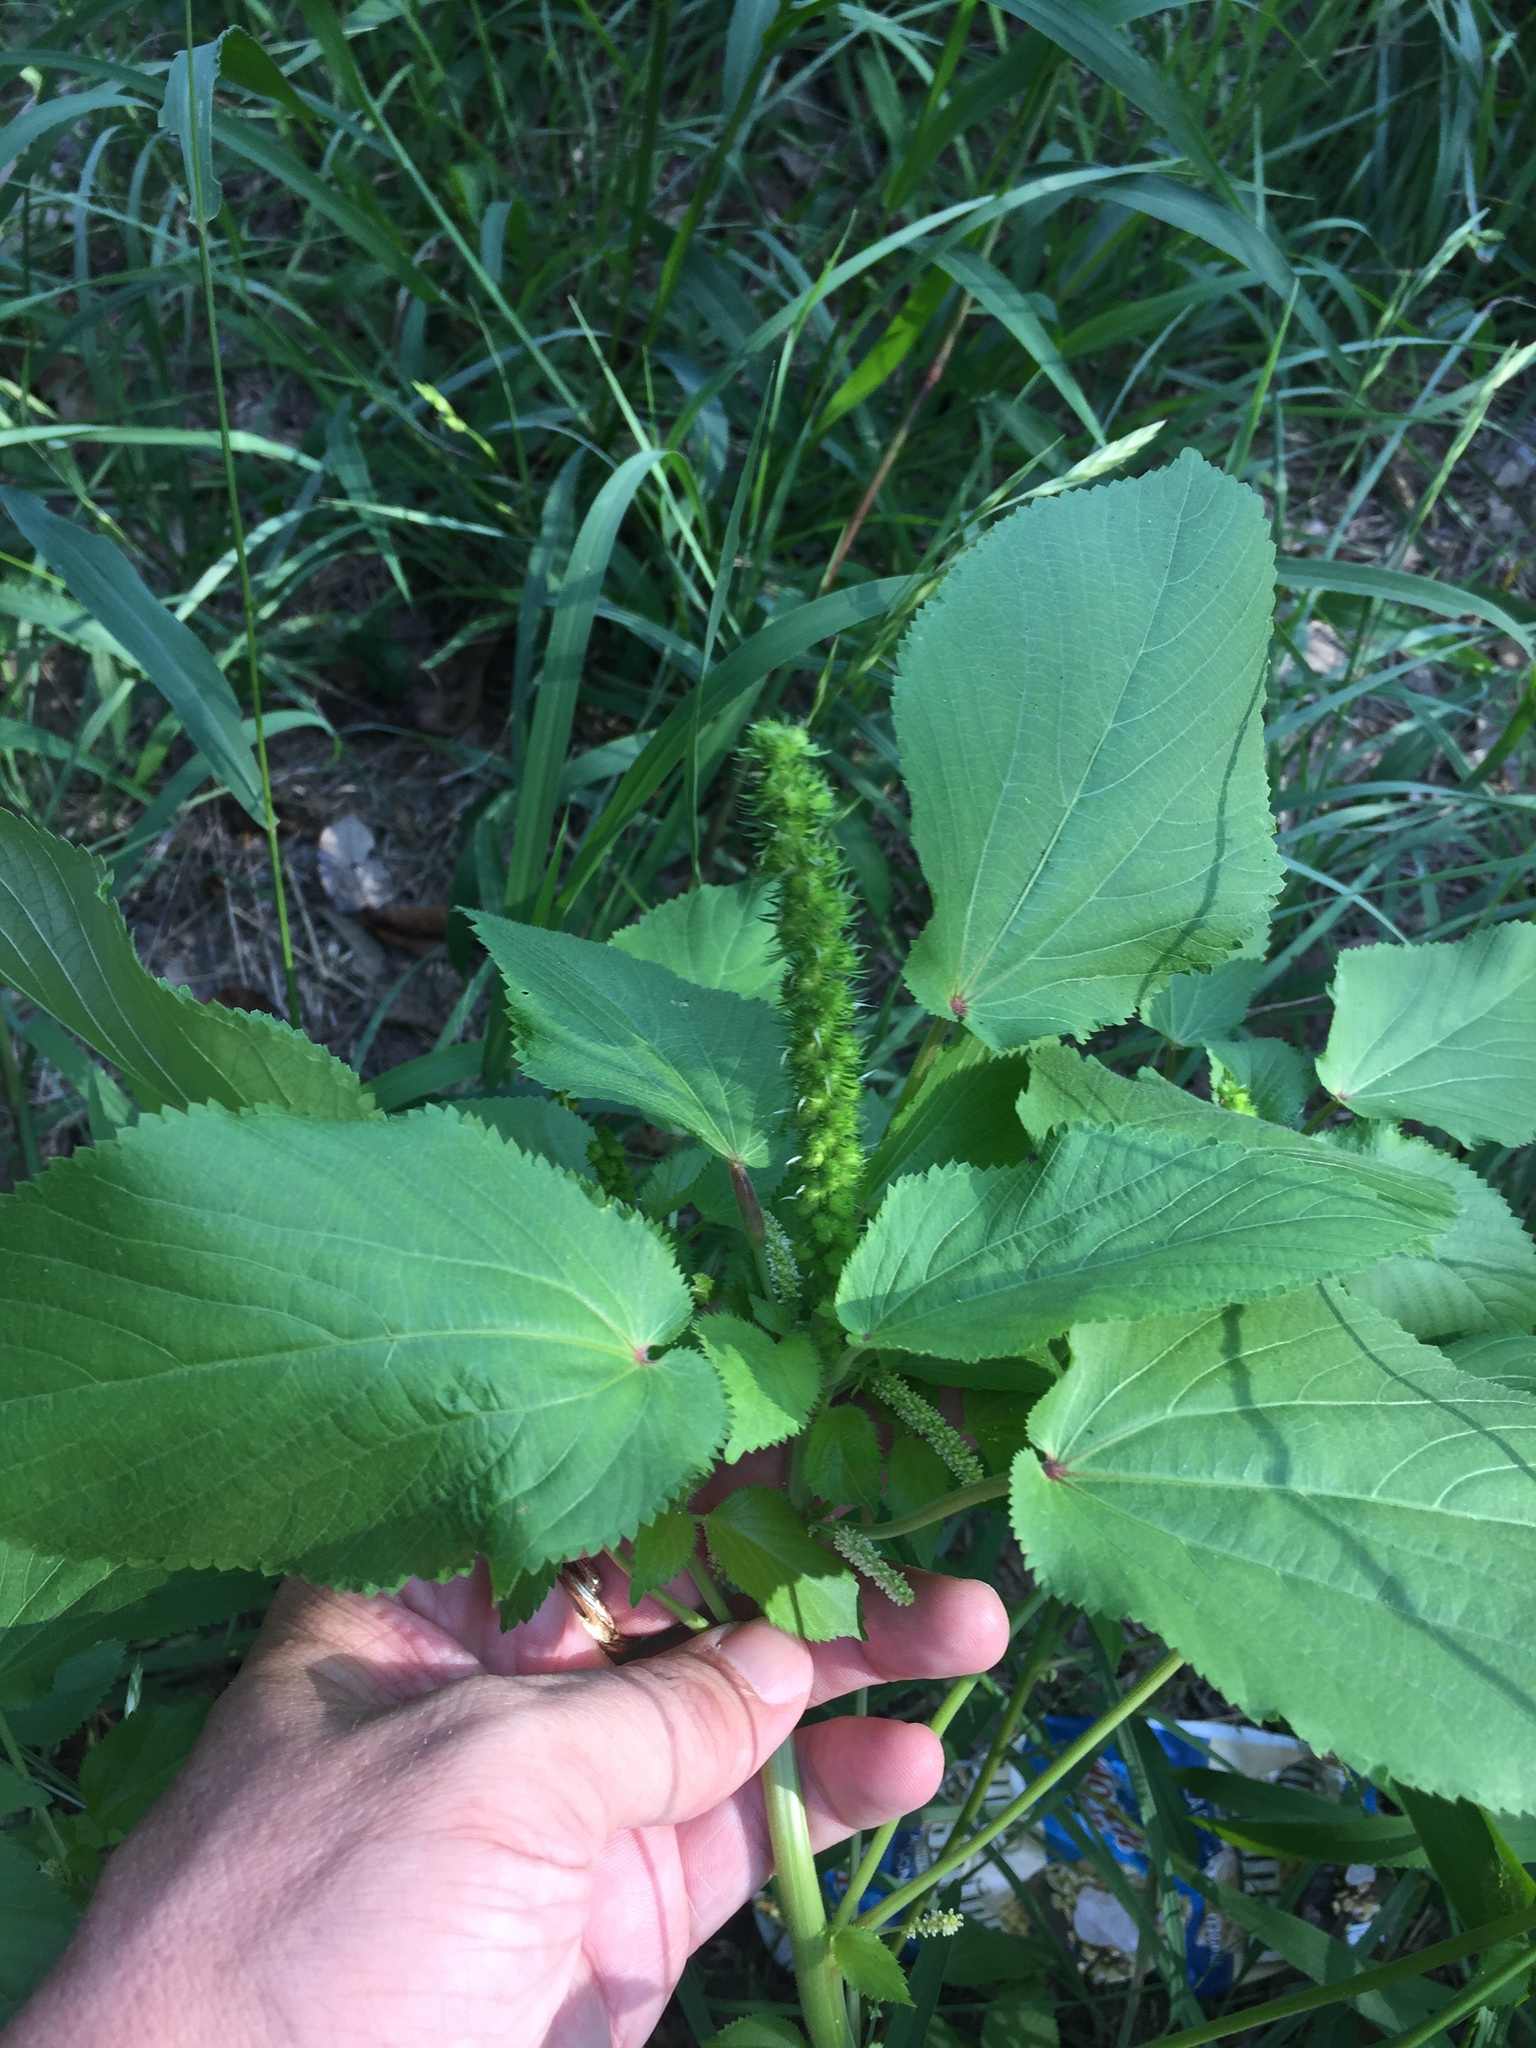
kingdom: Plantae
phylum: Tracheophyta
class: Magnoliopsida
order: Malpighiales
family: Euphorbiaceae
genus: Acalypha
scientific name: Acalypha ostryifolia
